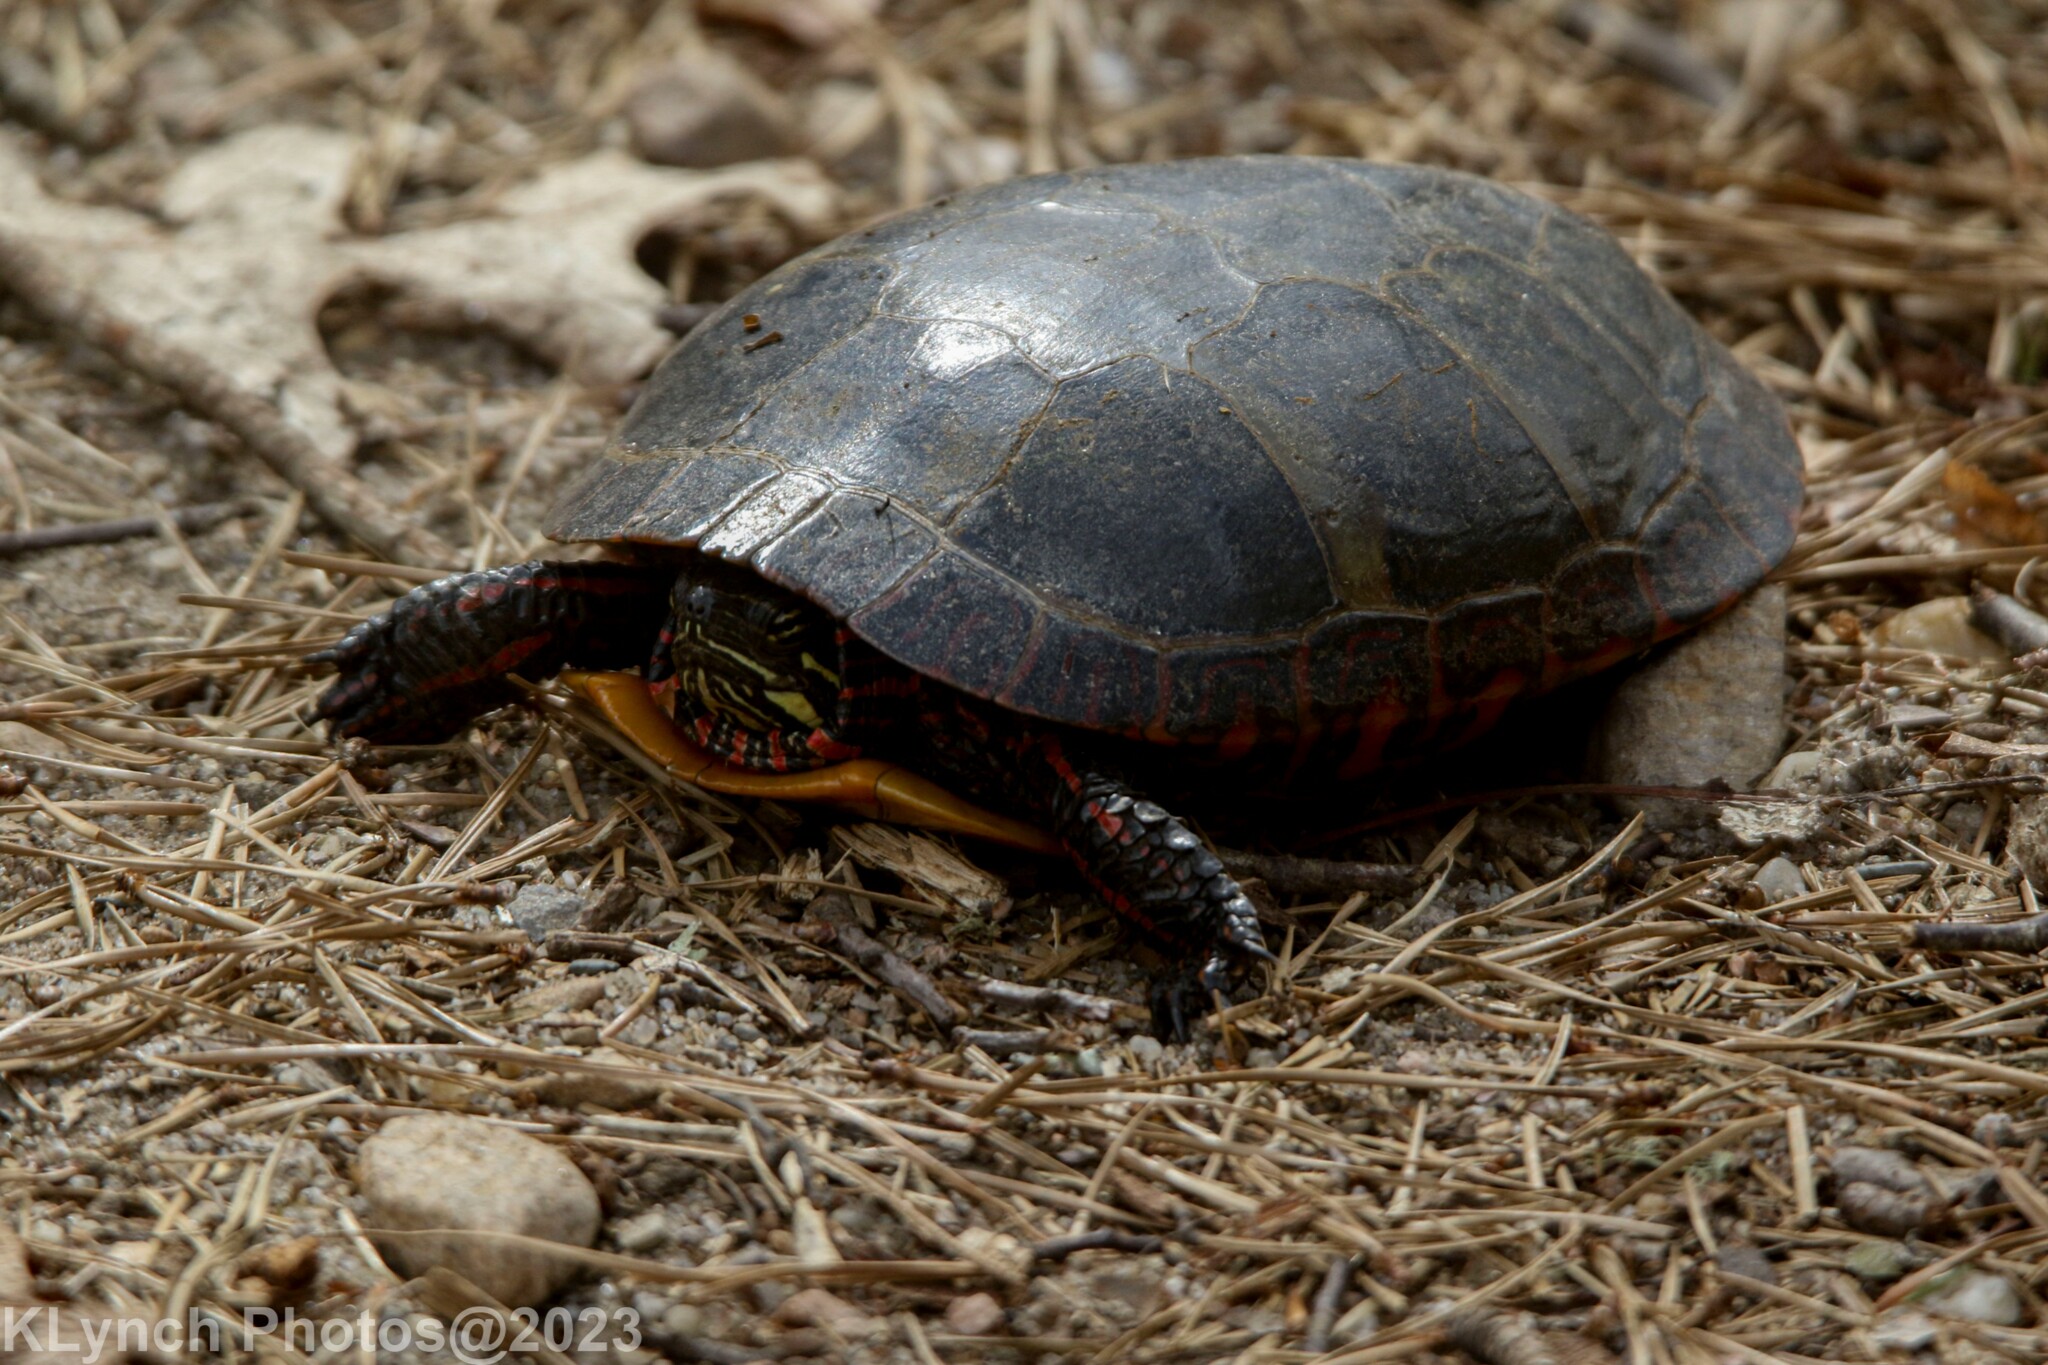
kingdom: Animalia
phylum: Chordata
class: Testudines
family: Emydidae
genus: Chrysemys
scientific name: Chrysemys picta
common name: Painted turtle
